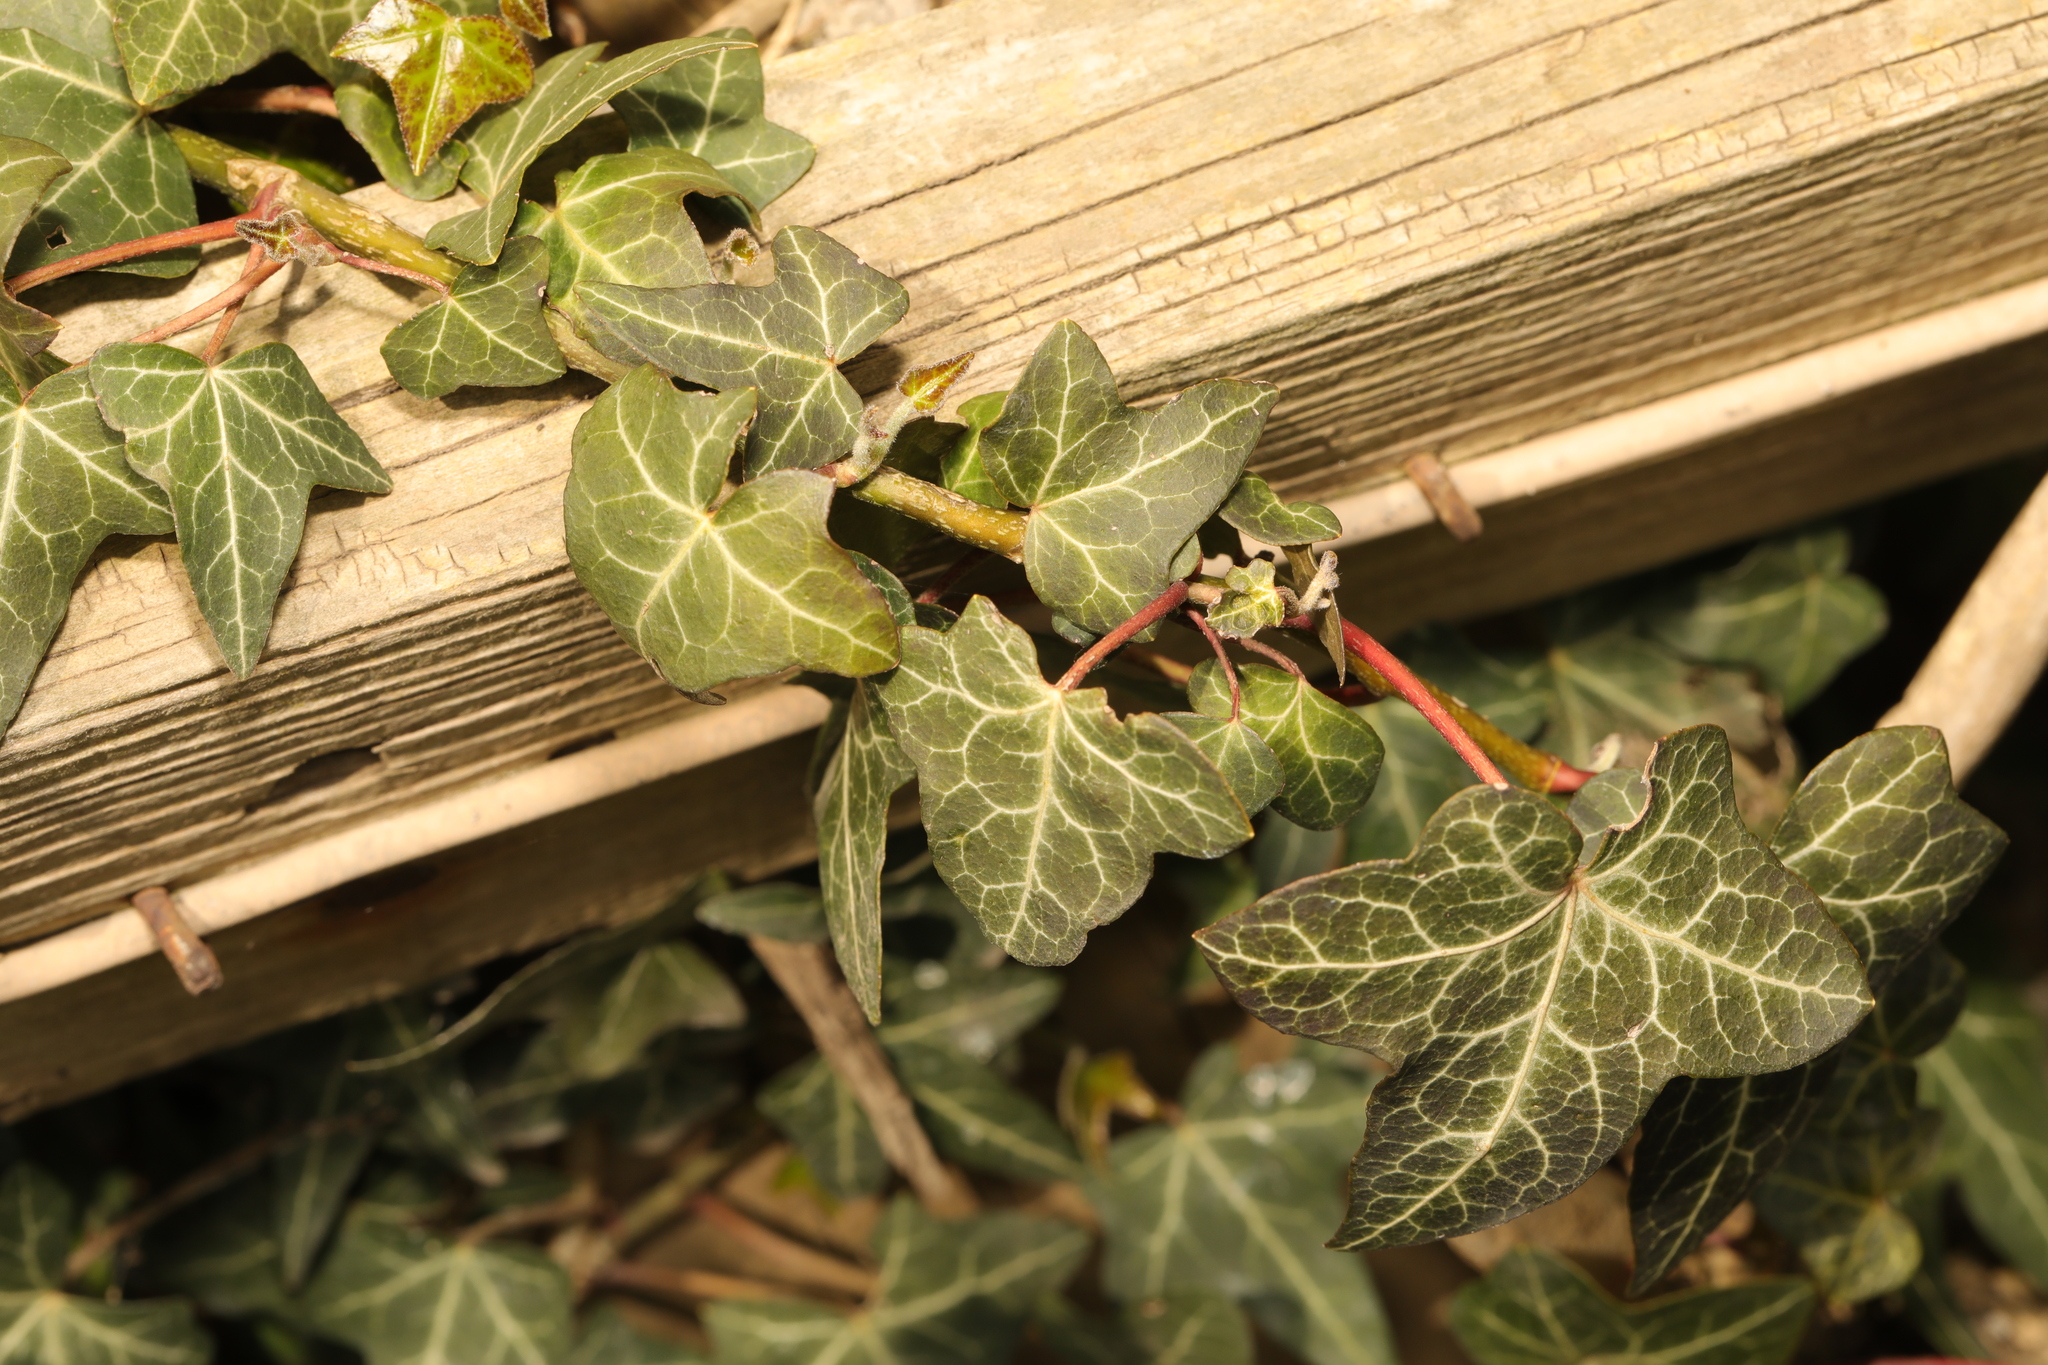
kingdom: Plantae
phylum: Tracheophyta
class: Magnoliopsida
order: Apiales
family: Araliaceae
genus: Hedera
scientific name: Hedera helix
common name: Ivy
